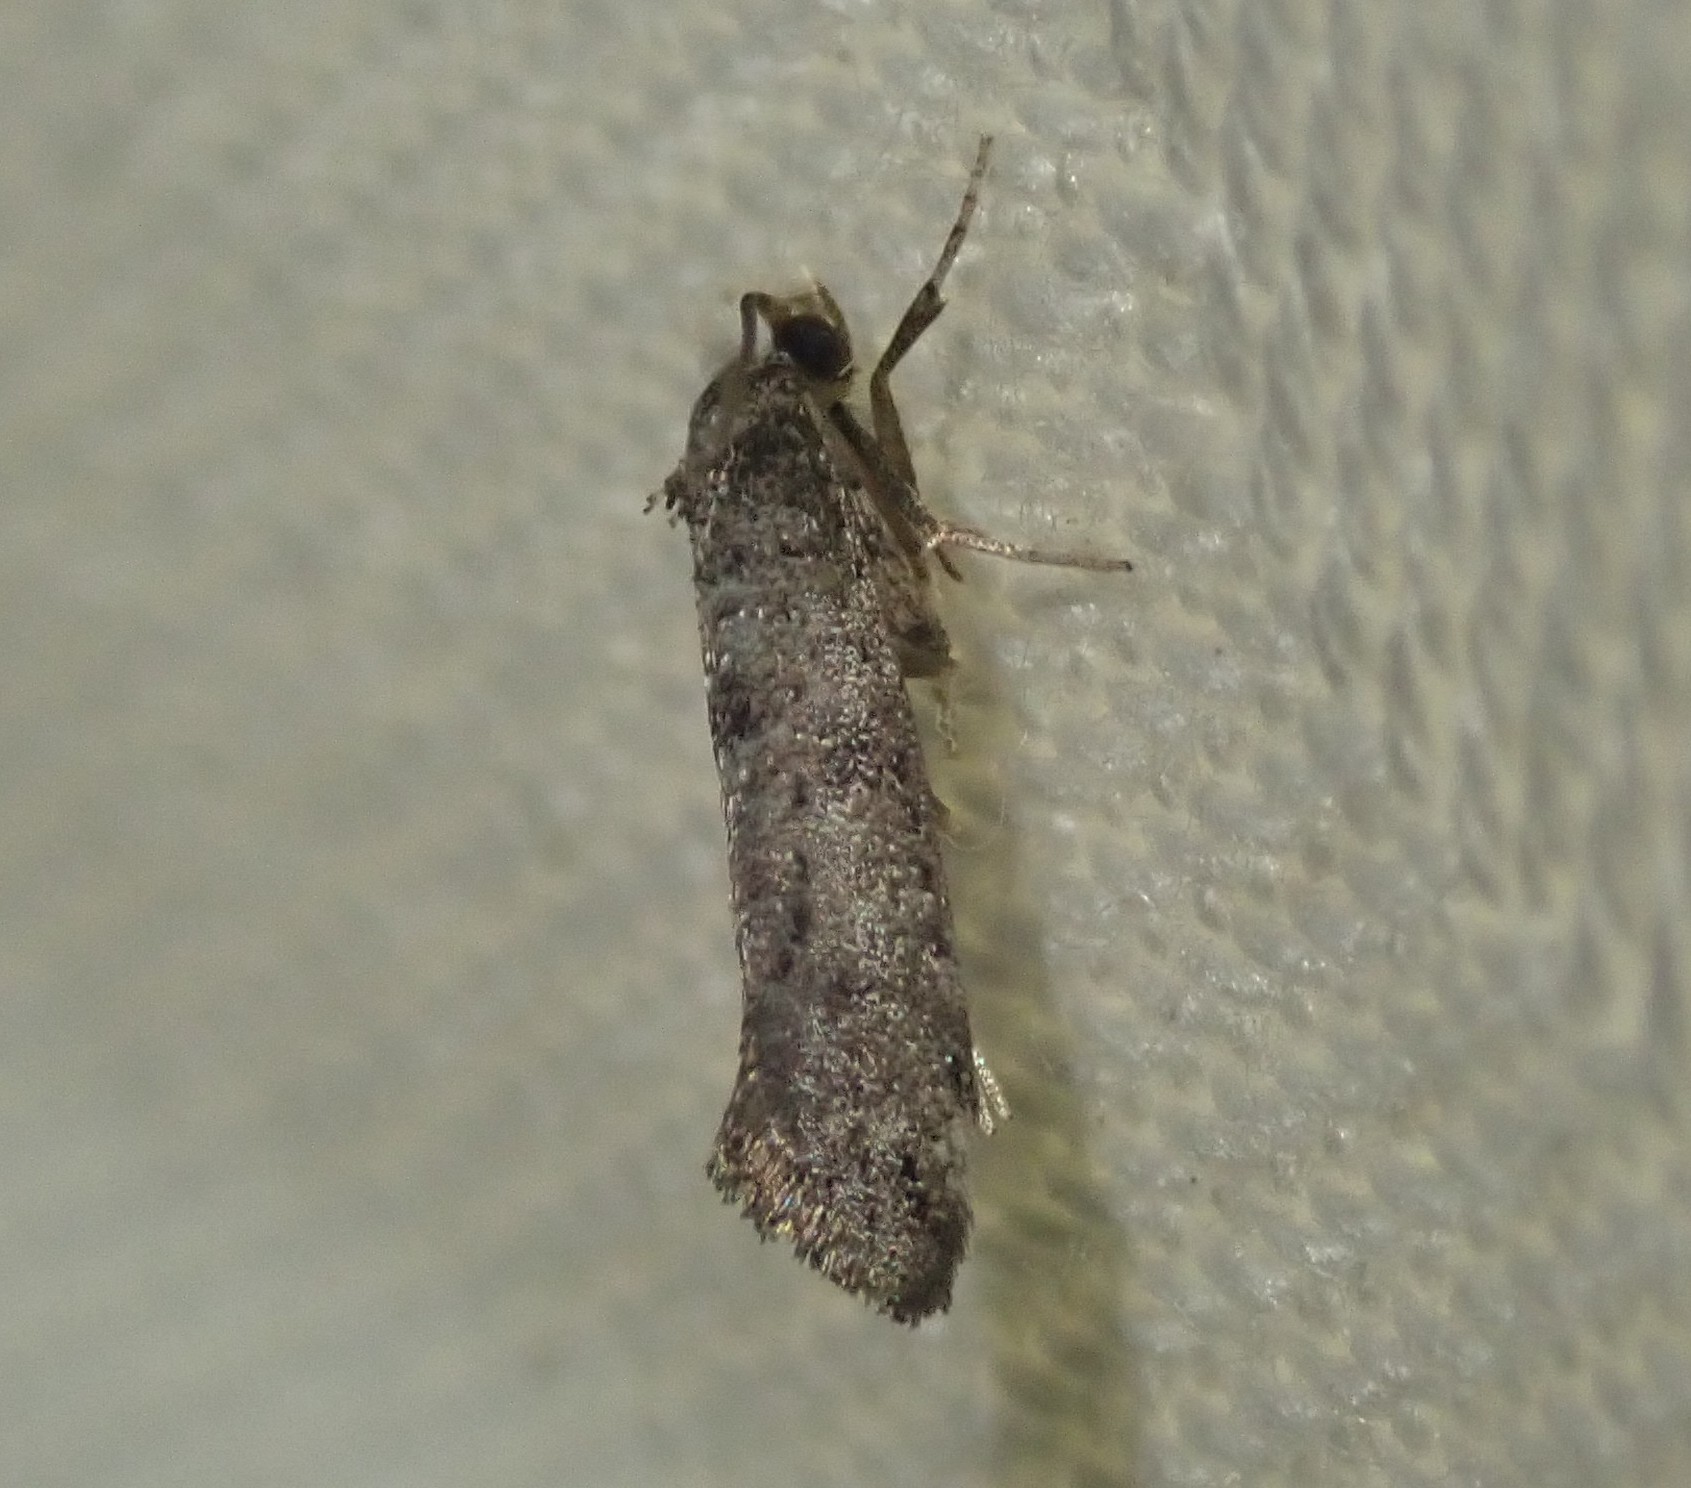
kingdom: Animalia
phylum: Arthropoda
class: Insecta
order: Lepidoptera
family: Yponomeutidae
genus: Paraswammerdamia
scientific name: Paraswammerdamia lutarea
